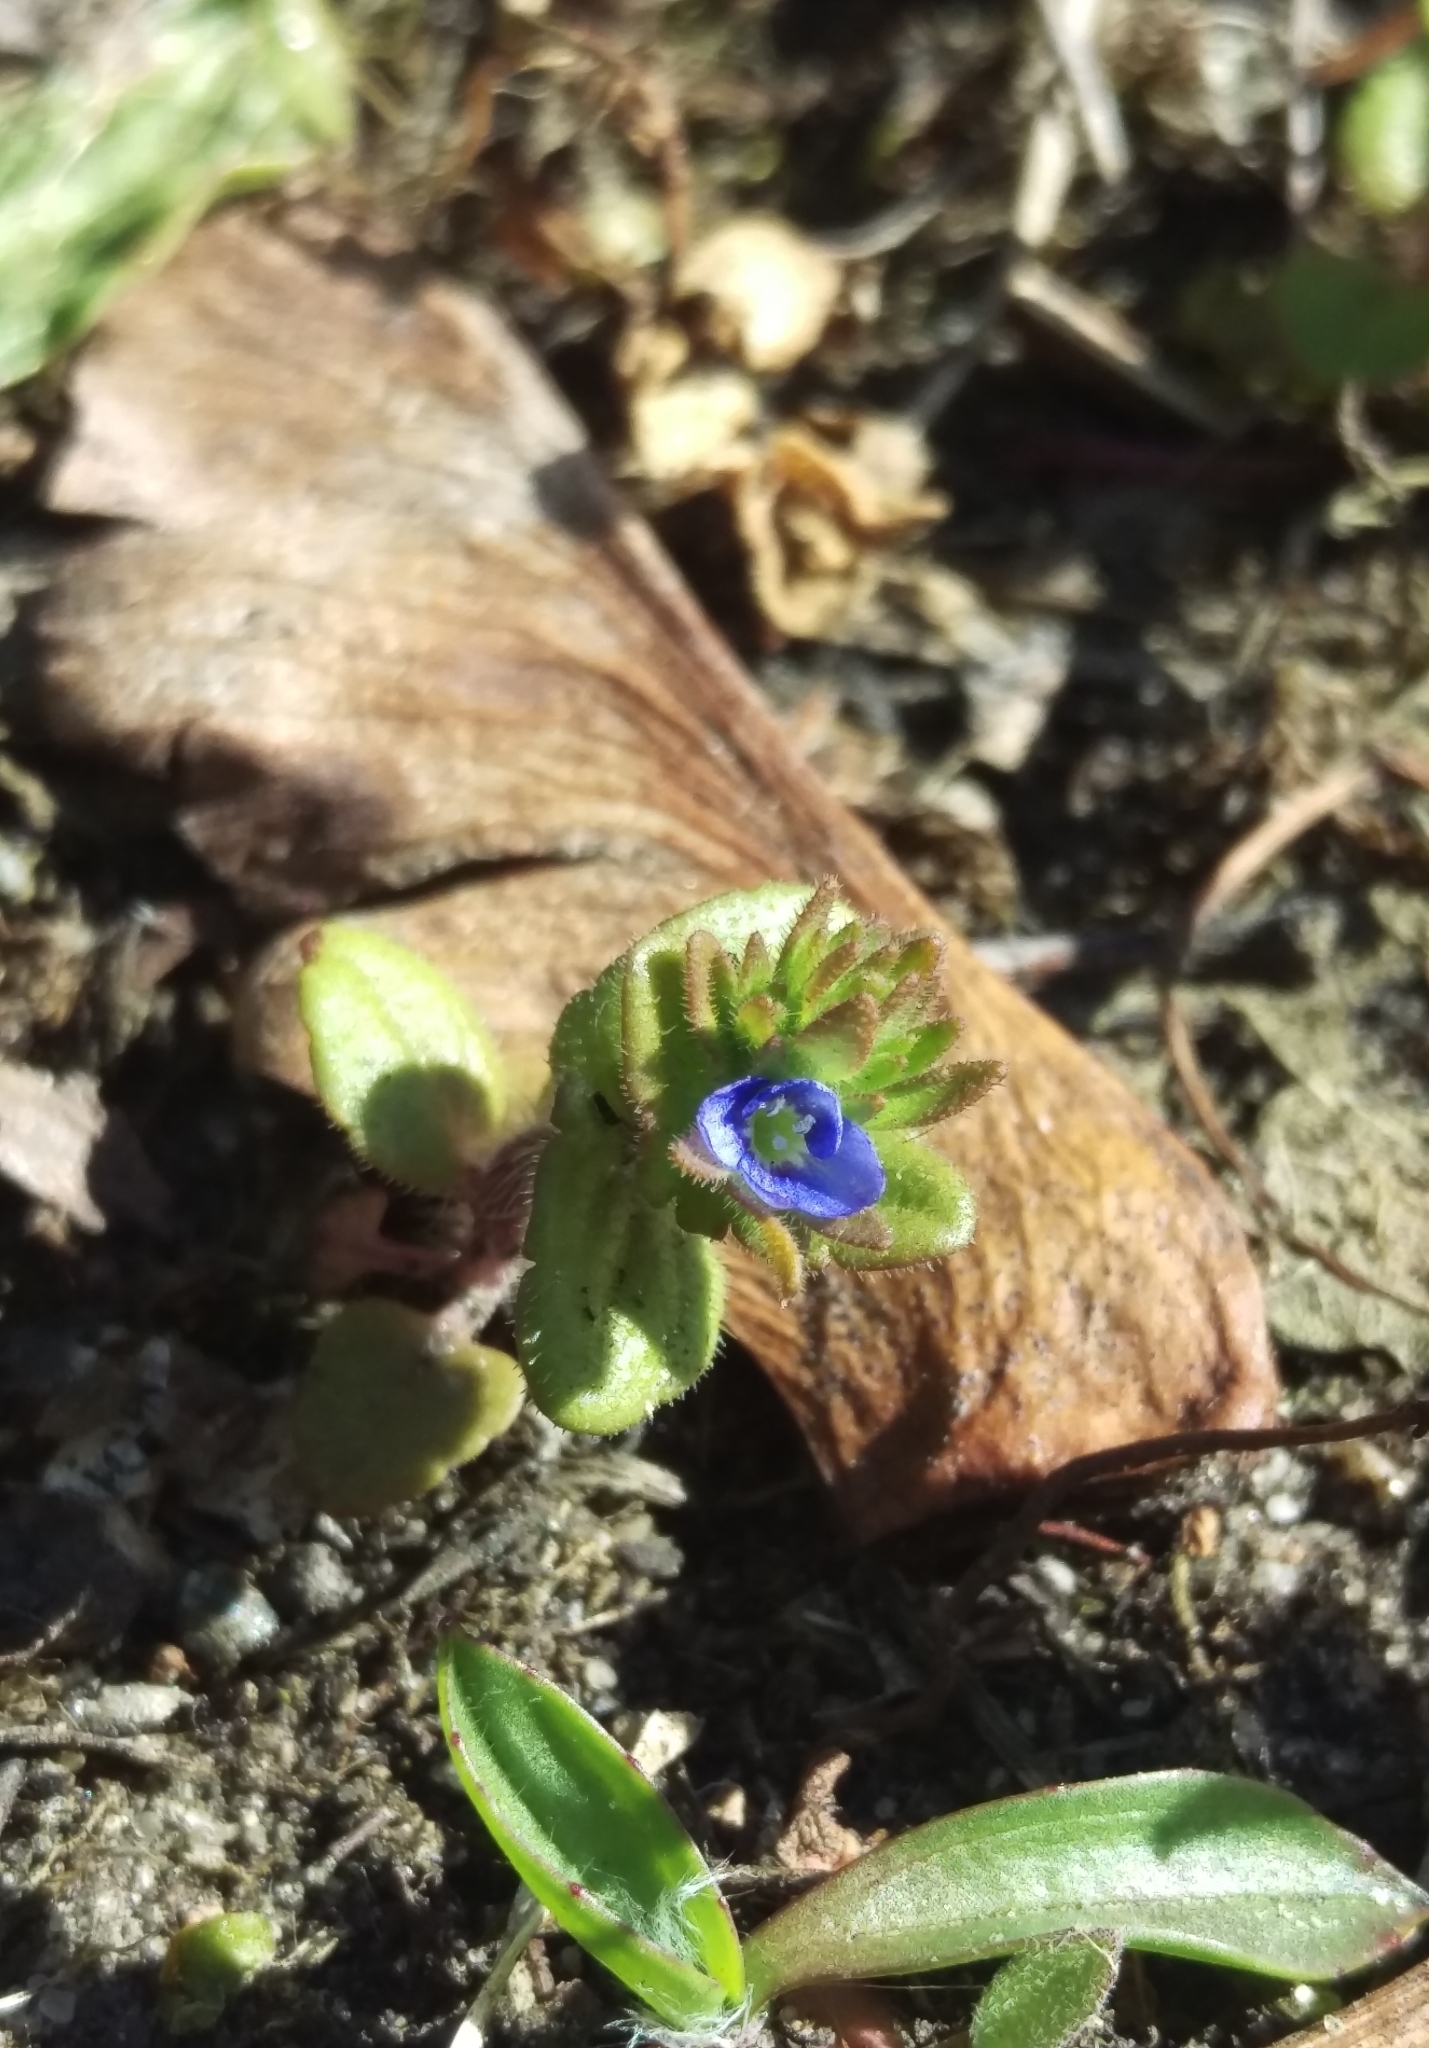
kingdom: Plantae
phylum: Tracheophyta
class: Magnoliopsida
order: Lamiales
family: Plantaginaceae
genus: Veronica
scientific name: Veronica arvensis
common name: Corn speedwell
